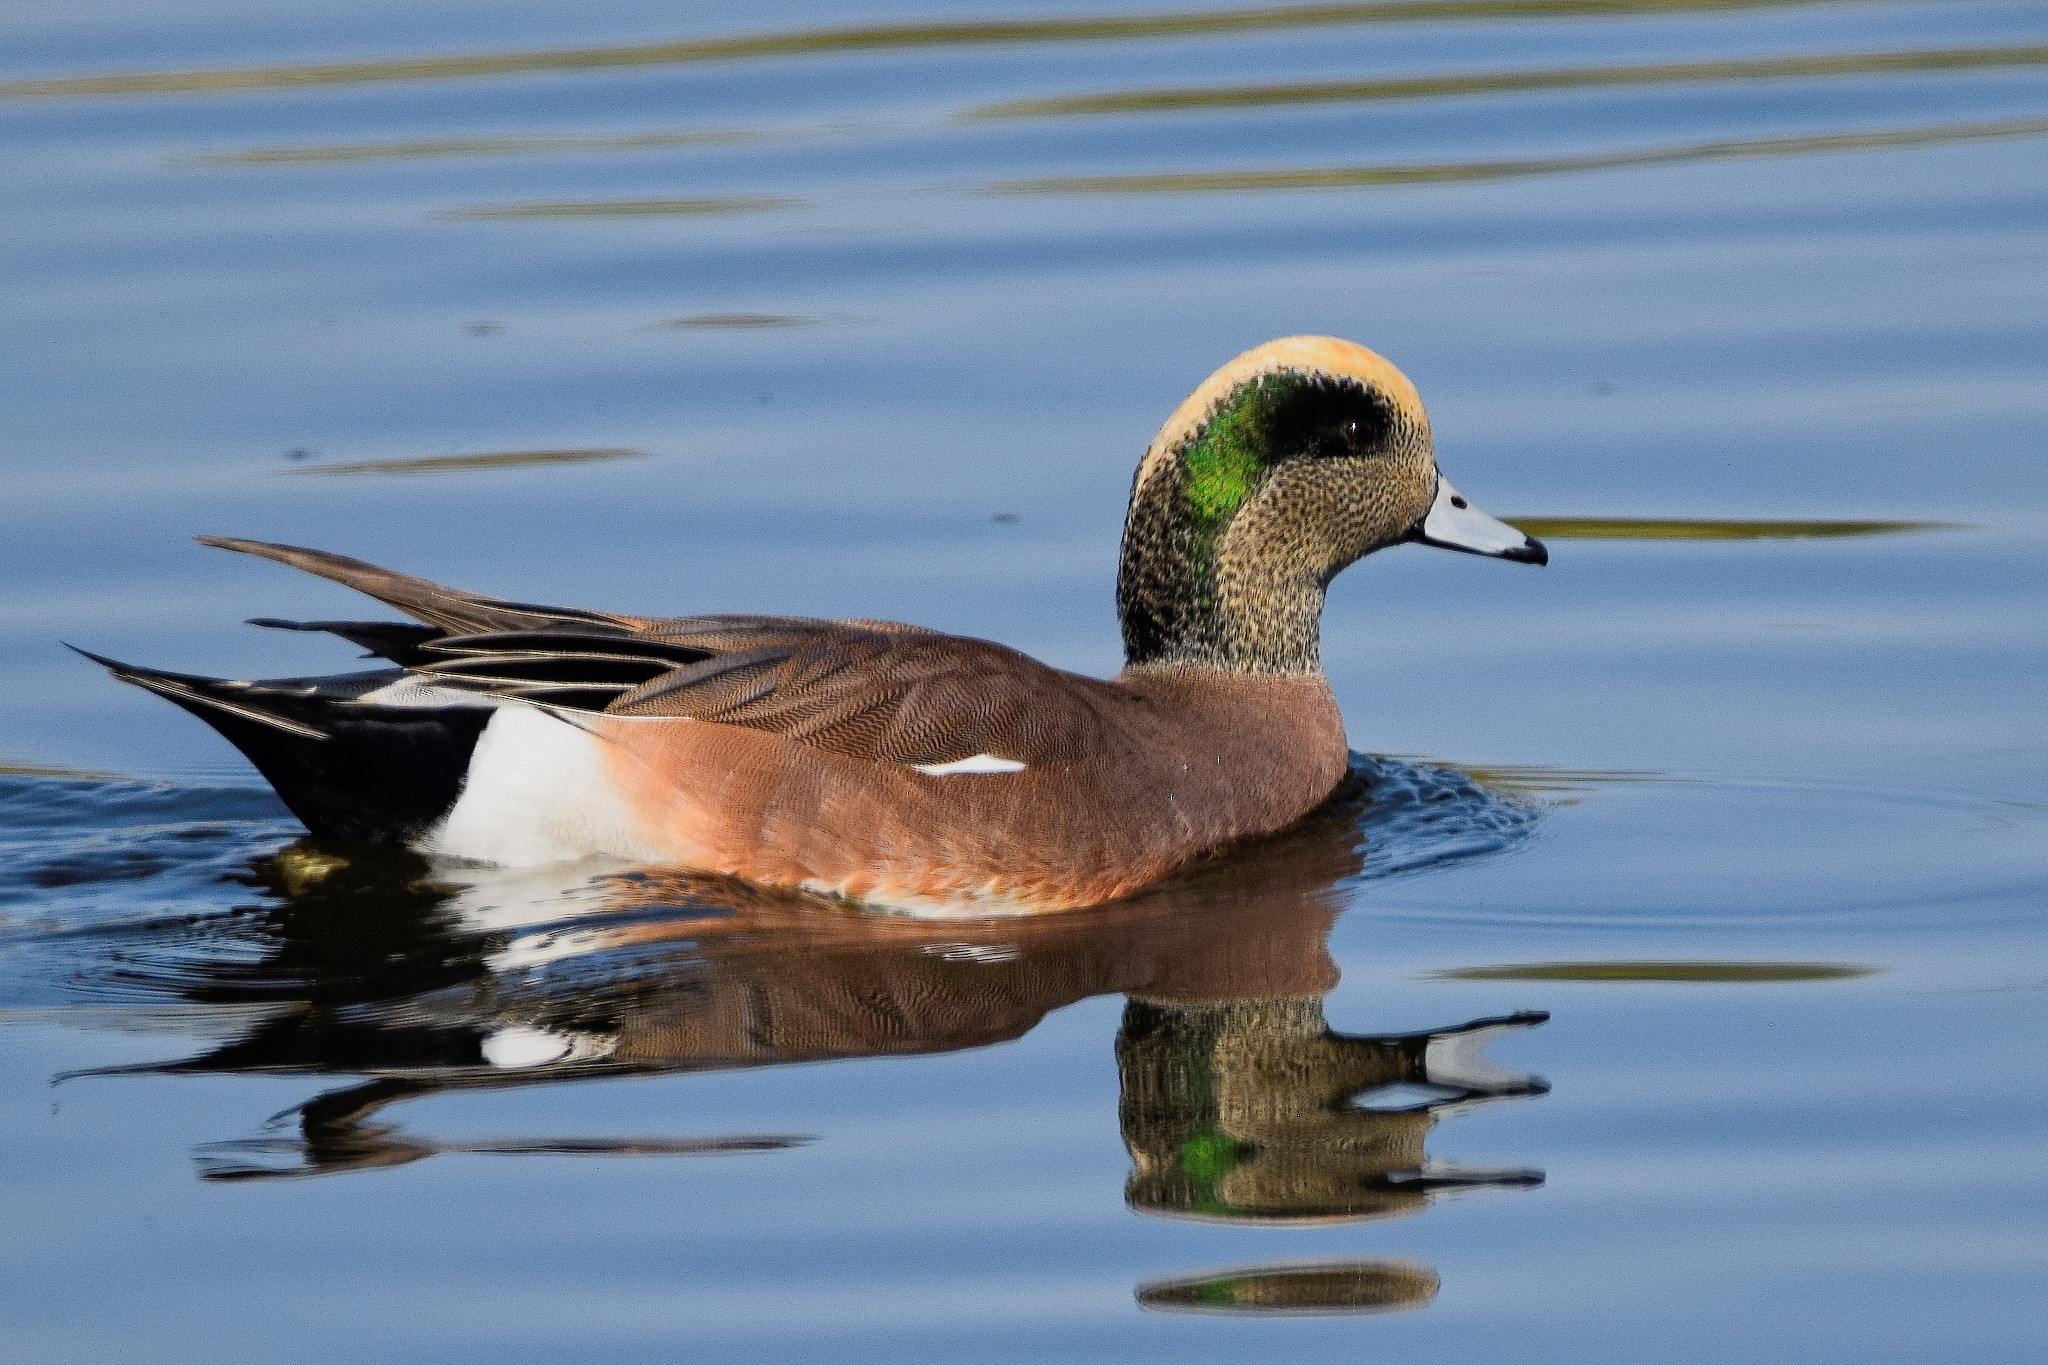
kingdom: Animalia
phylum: Chordata
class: Aves
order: Anseriformes
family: Anatidae
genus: Mareca
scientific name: Mareca americana
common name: American wigeon
